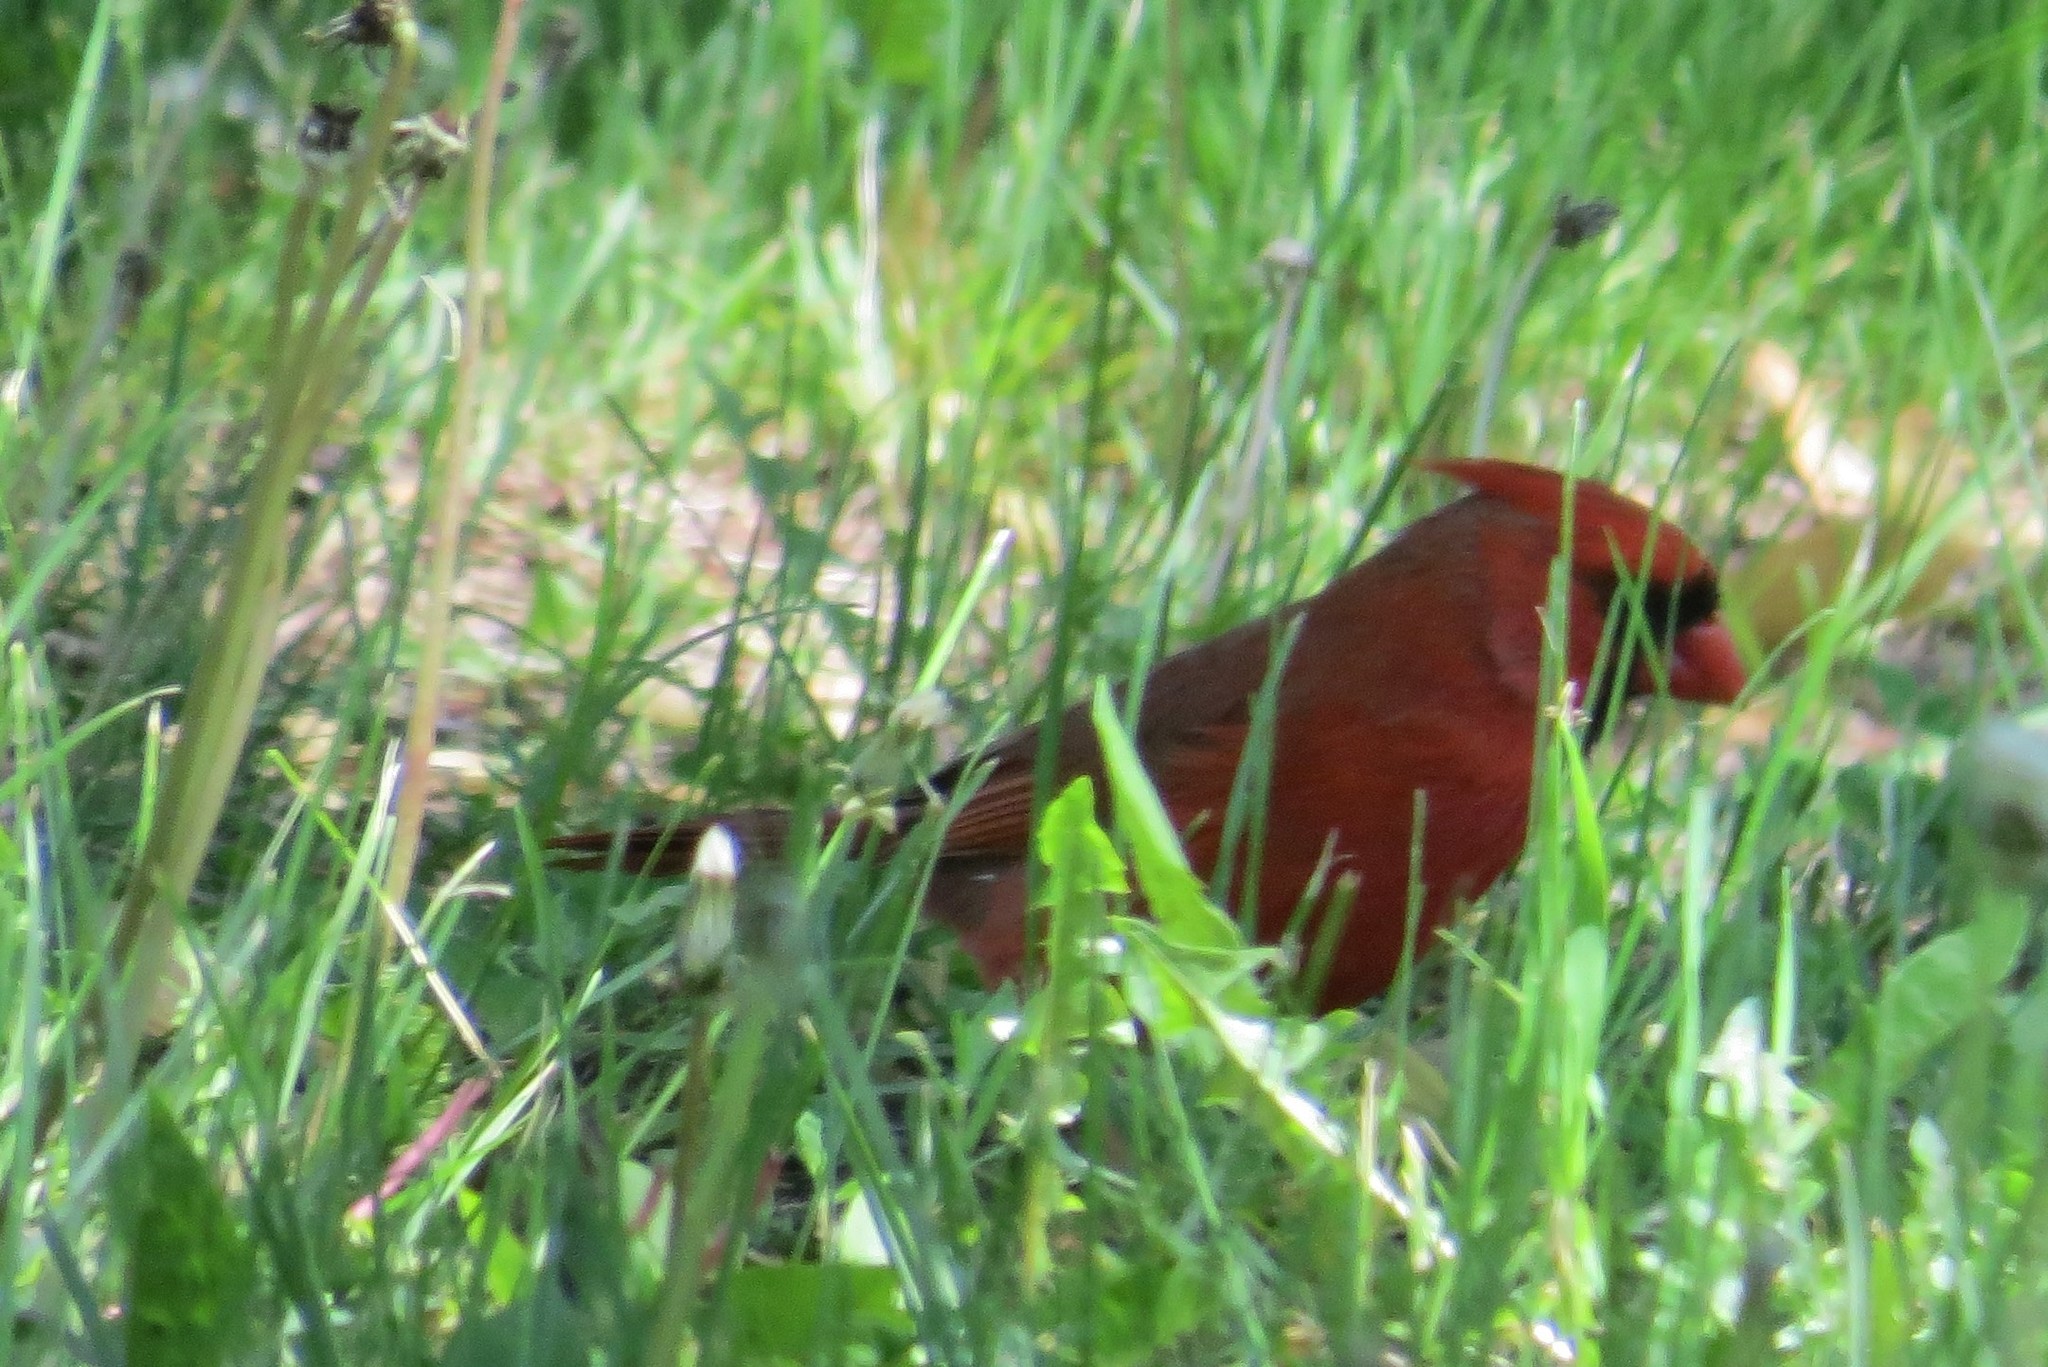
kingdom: Animalia
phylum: Chordata
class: Aves
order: Passeriformes
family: Cardinalidae
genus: Cardinalis
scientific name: Cardinalis cardinalis
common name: Northern cardinal
